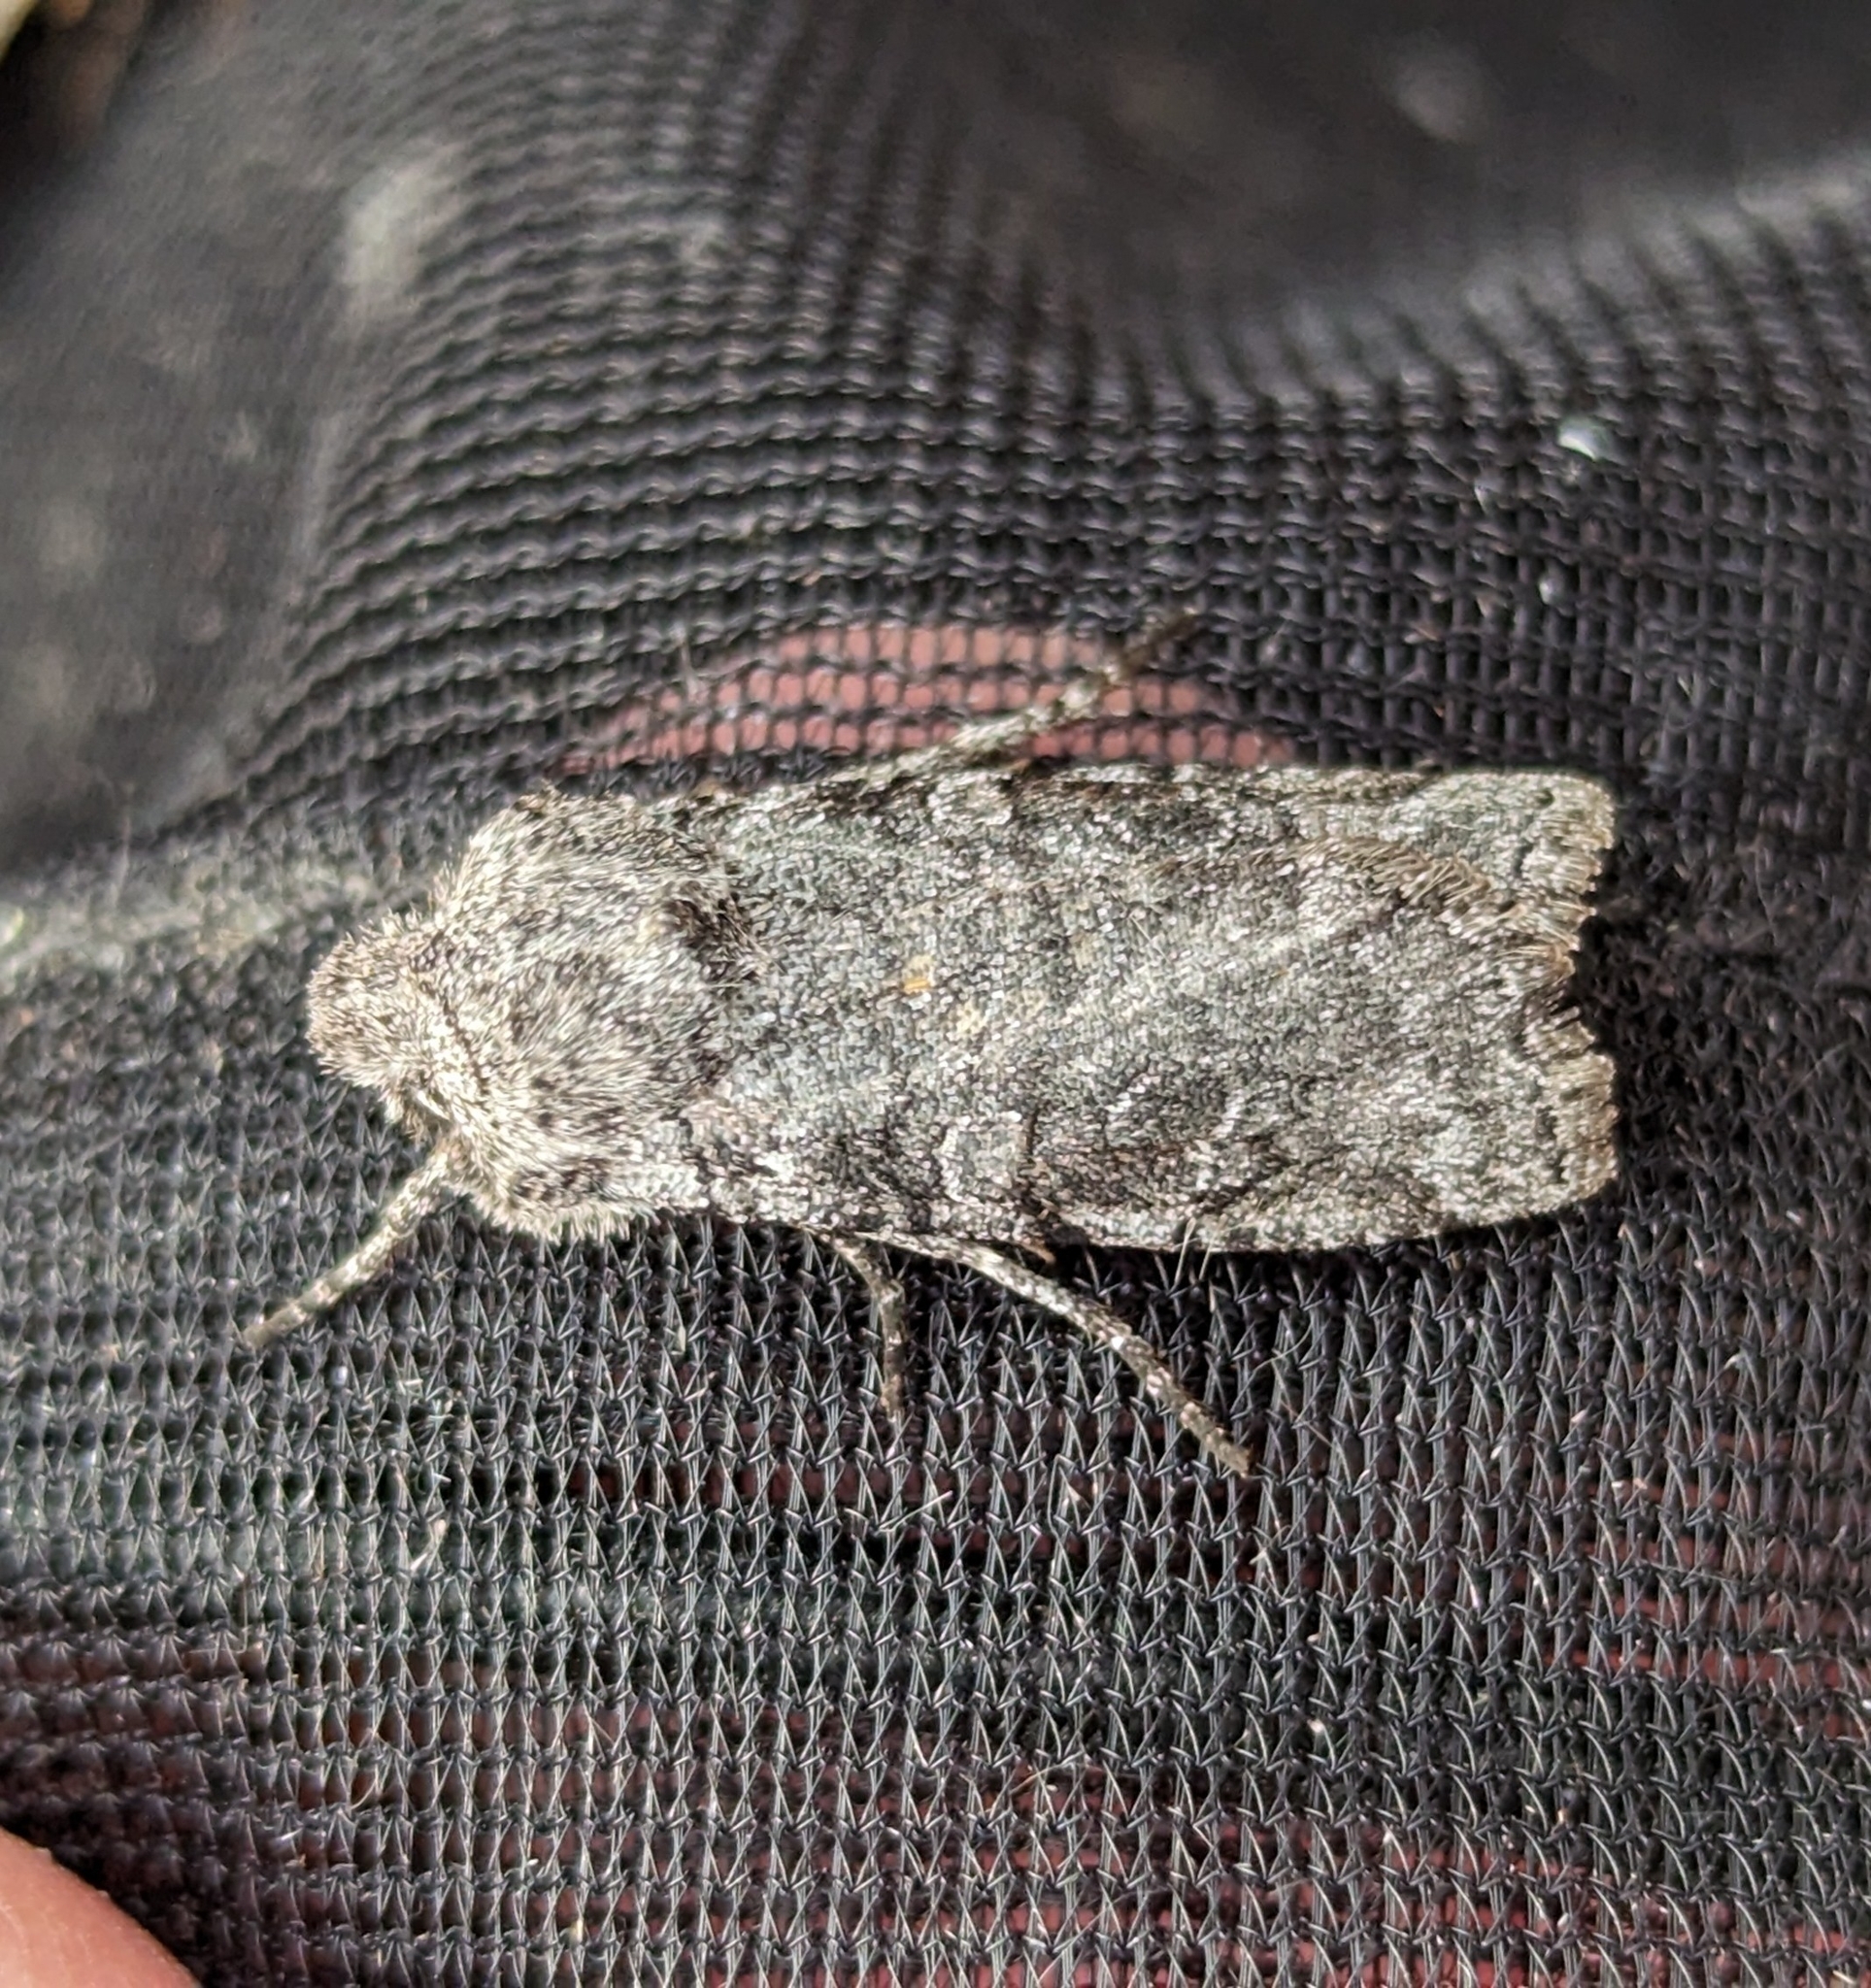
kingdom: Animalia
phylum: Arthropoda
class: Insecta
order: Lepidoptera
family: Noctuidae
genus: Litholomia
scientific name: Litholomia napaea
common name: False pinion moth
